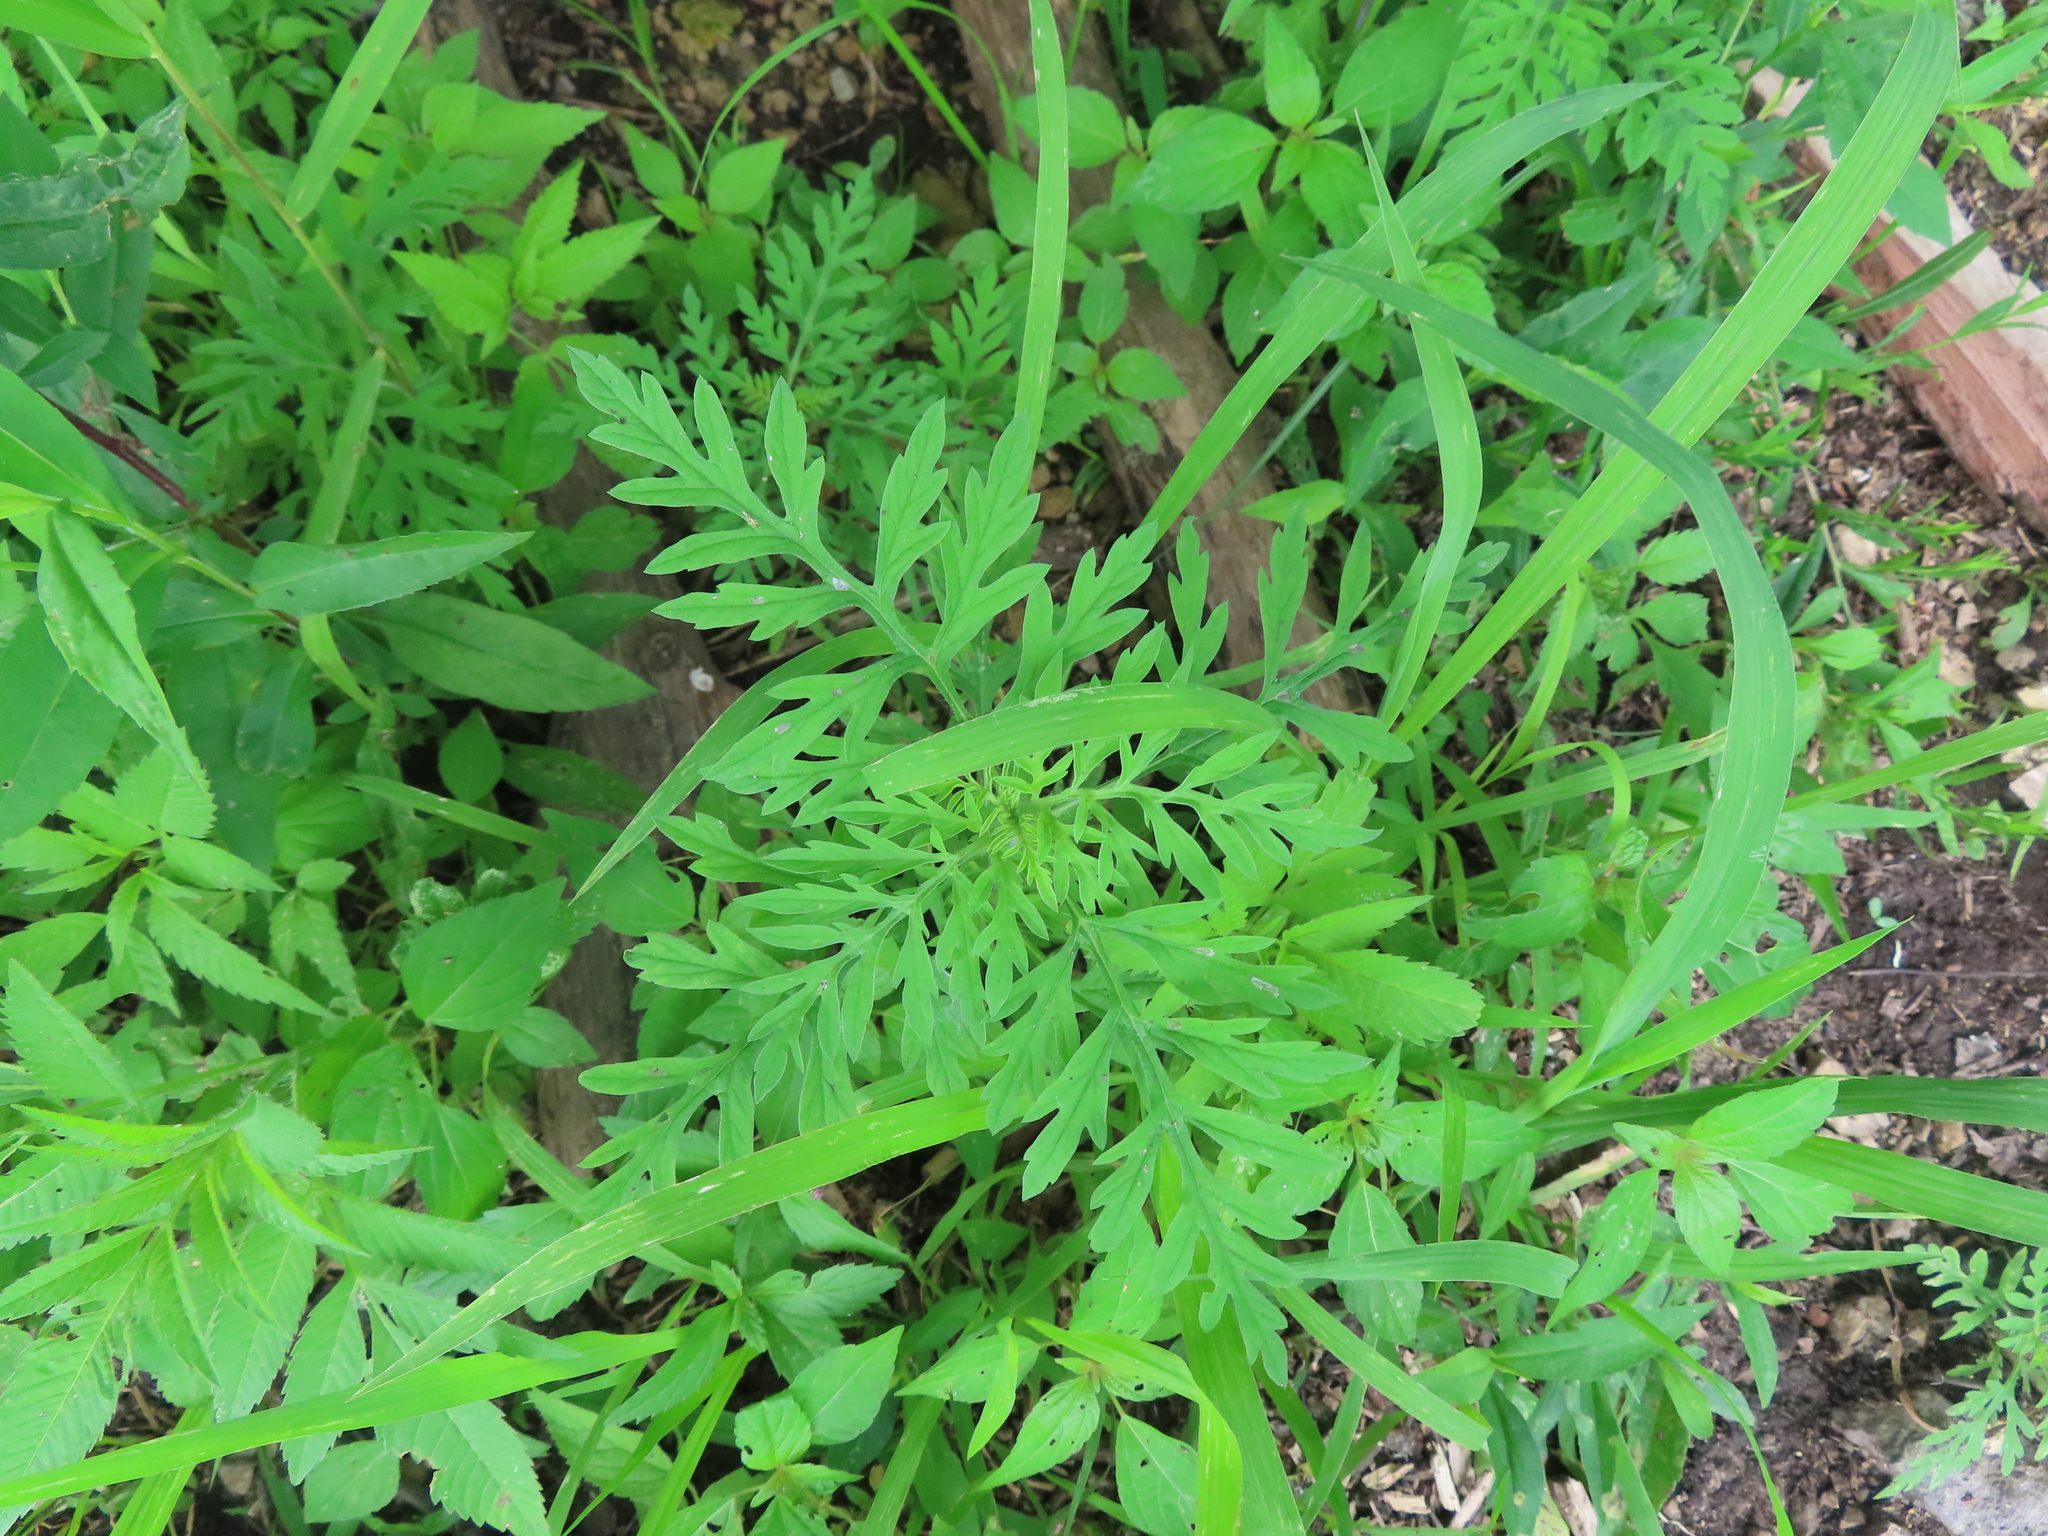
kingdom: Plantae
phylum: Tracheophyta
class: Magnoliopsida
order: Asterales
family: Asteraceae
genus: Ambrosia
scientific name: Ambrosia artemisiifolia
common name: Annual ragweed
